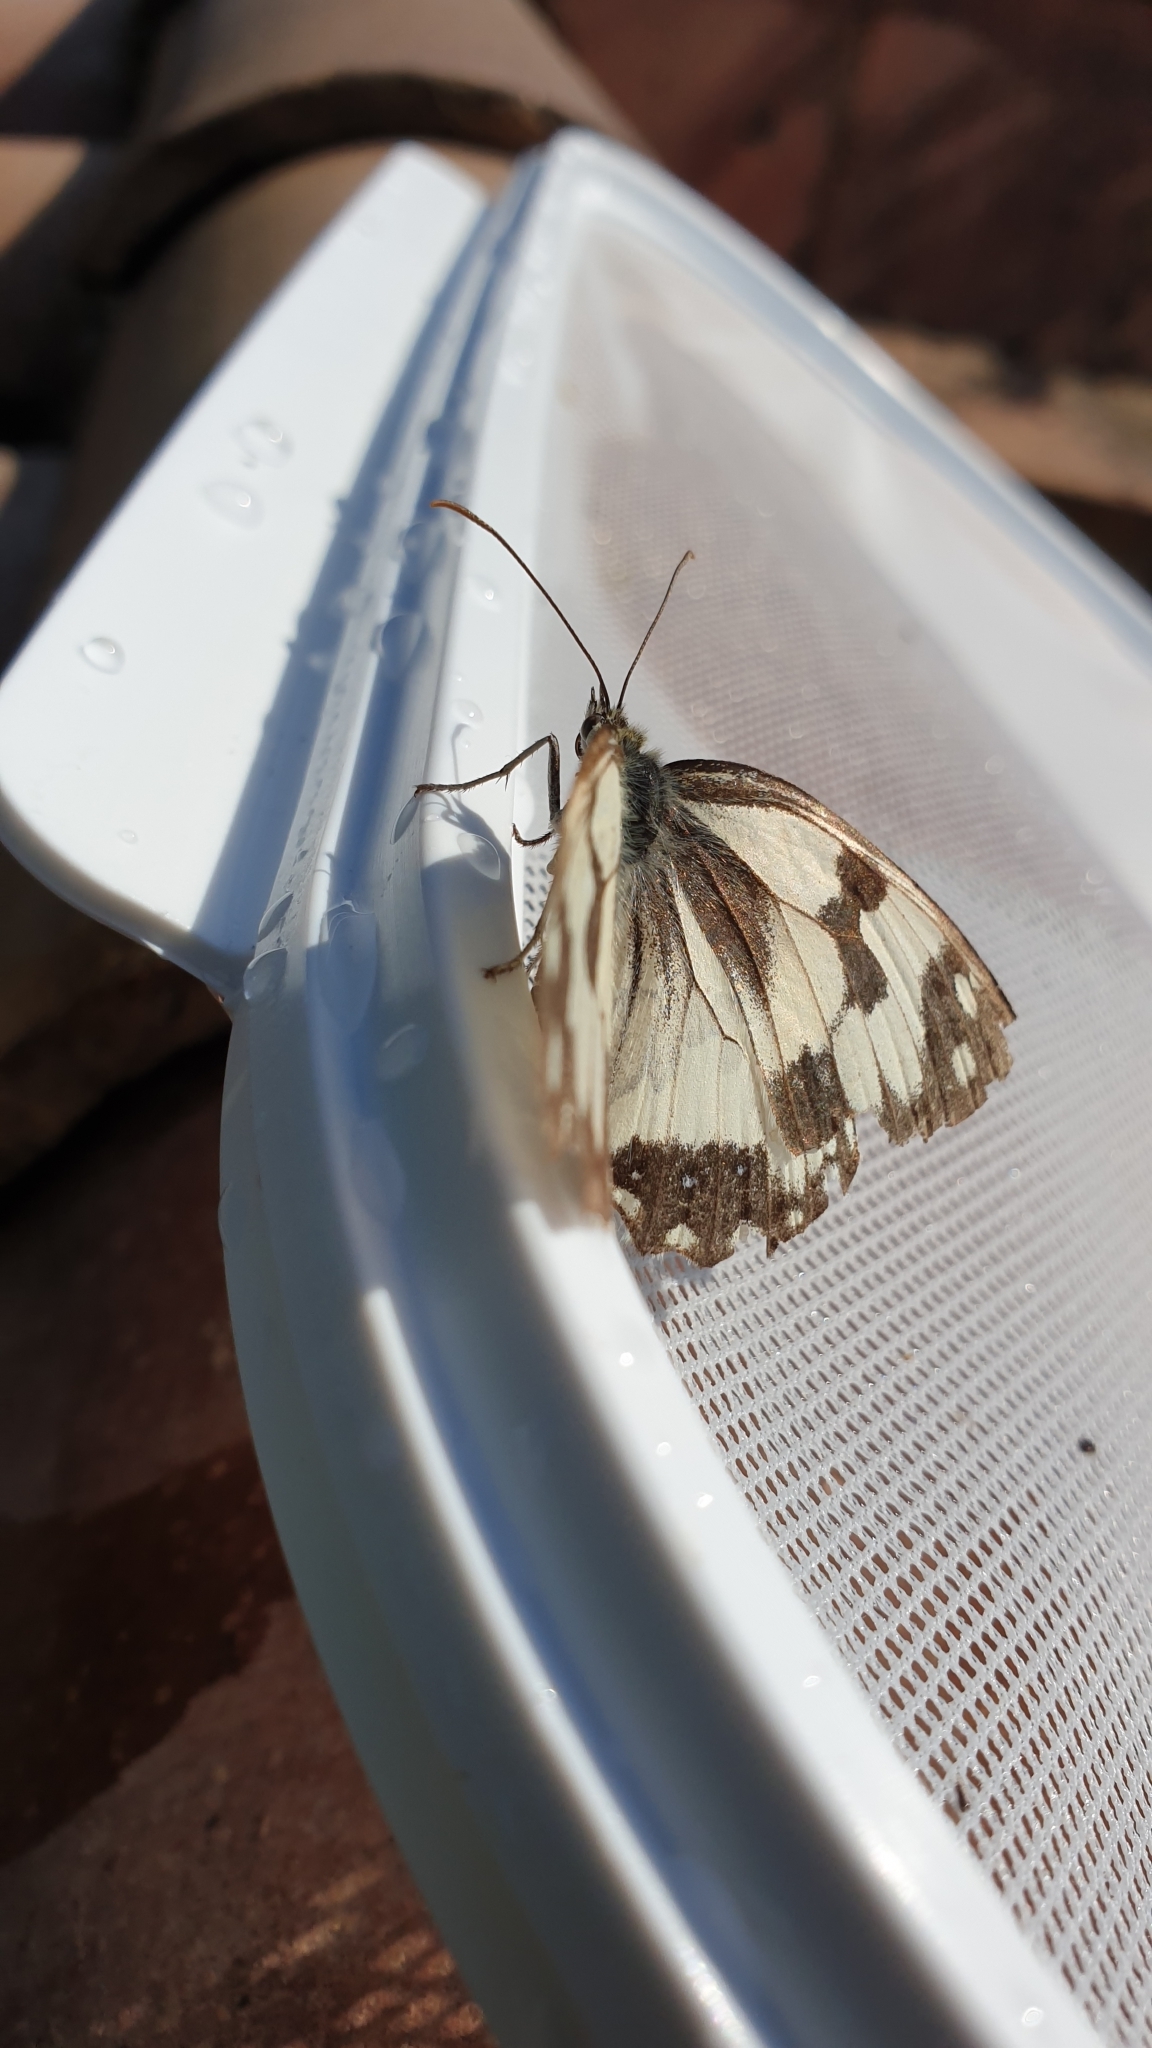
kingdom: Animalia
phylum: Arthropoda
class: Insecta
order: Lepidoptera
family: Nymphalidae
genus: Melanargia
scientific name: Melanargia lachesis
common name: Iberian marbled white
